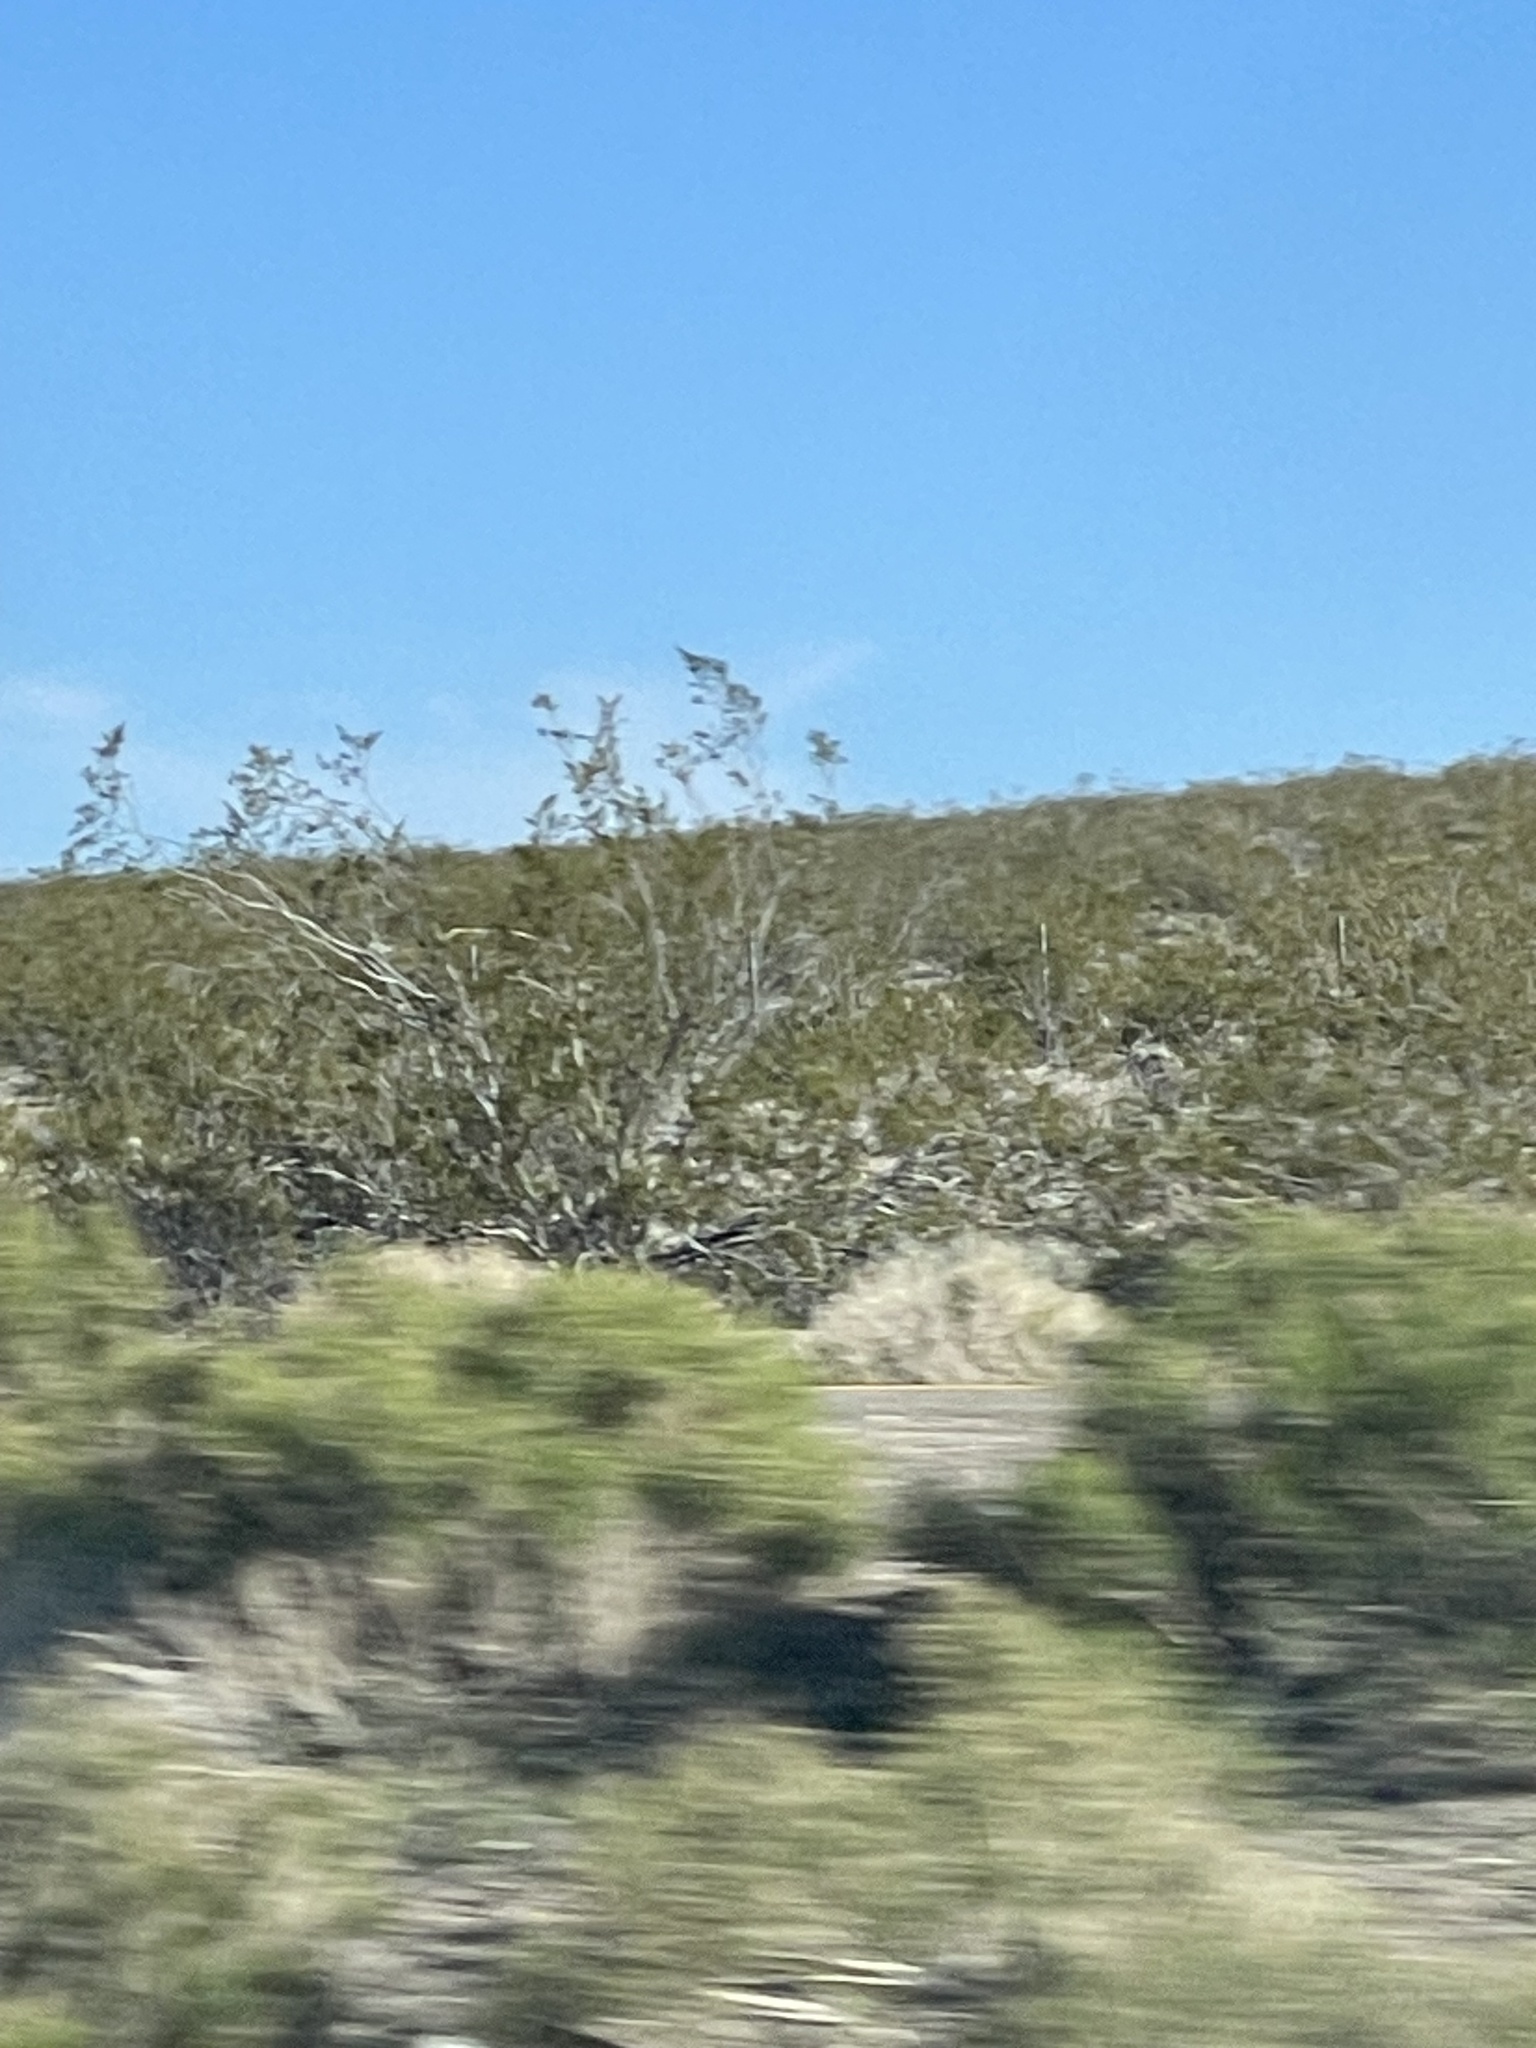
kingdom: Plantae
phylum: Tracheophyta
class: Magnoliopsida
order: Zygophyllales
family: Zygophyllaceae
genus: Larrea
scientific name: Larrea tridentata
